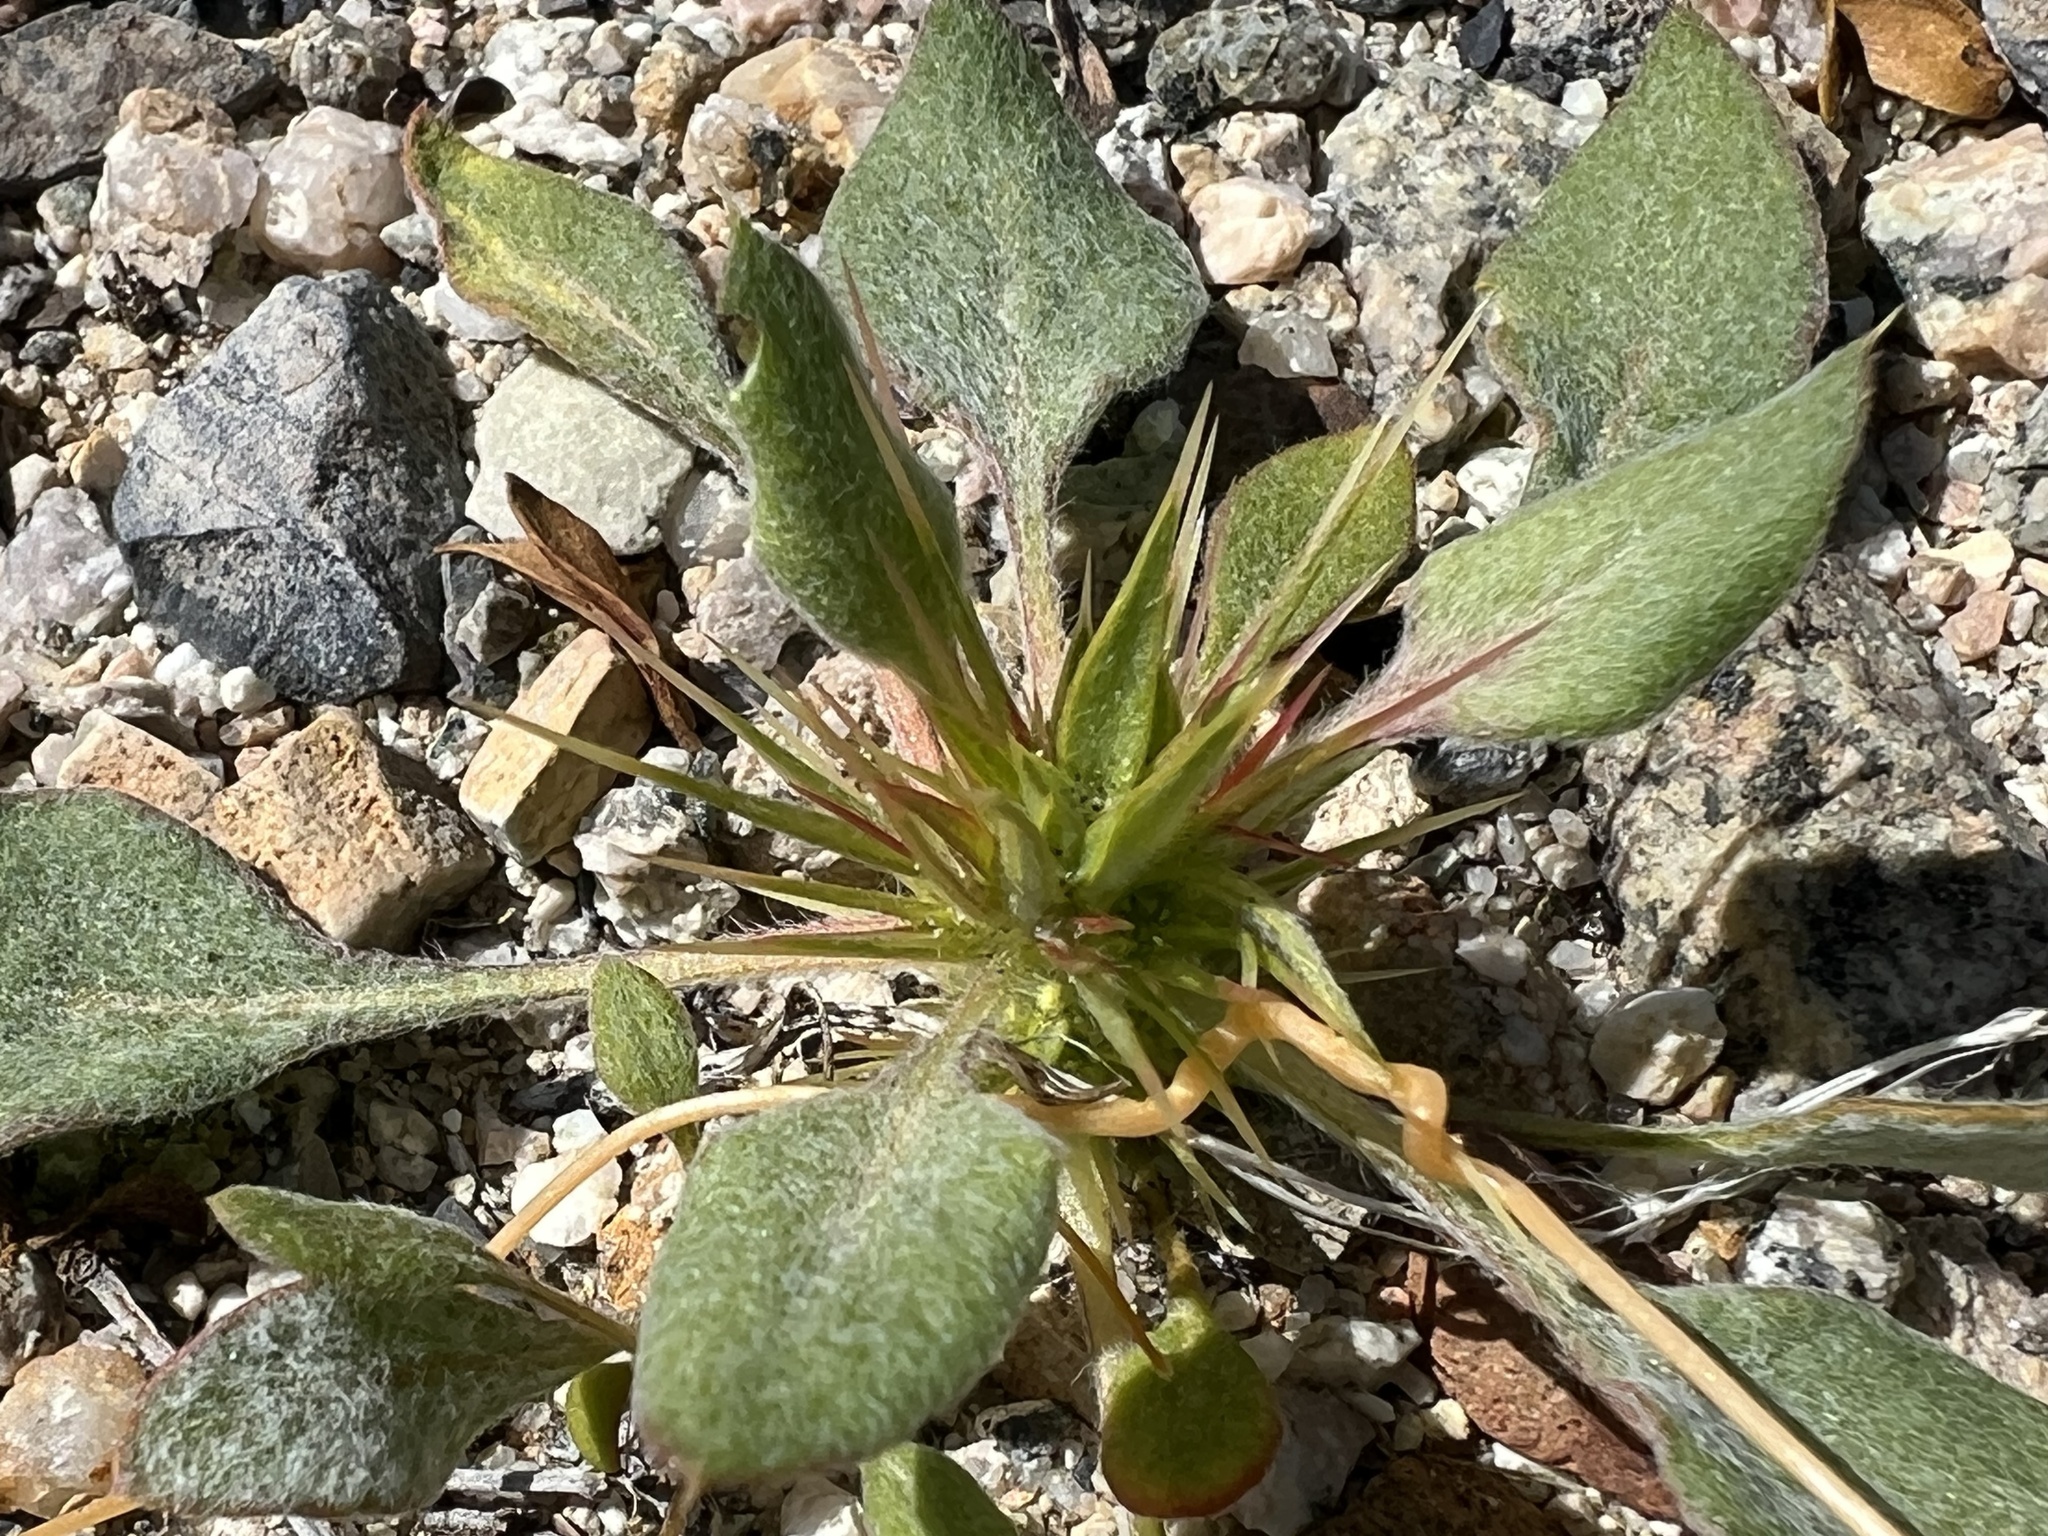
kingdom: Plantae
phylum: Tracheophyta
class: Magnoliopsida
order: Caryophyllales
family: Polygonaceae
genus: Chorizanthe
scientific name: Chorizanthe rigida
